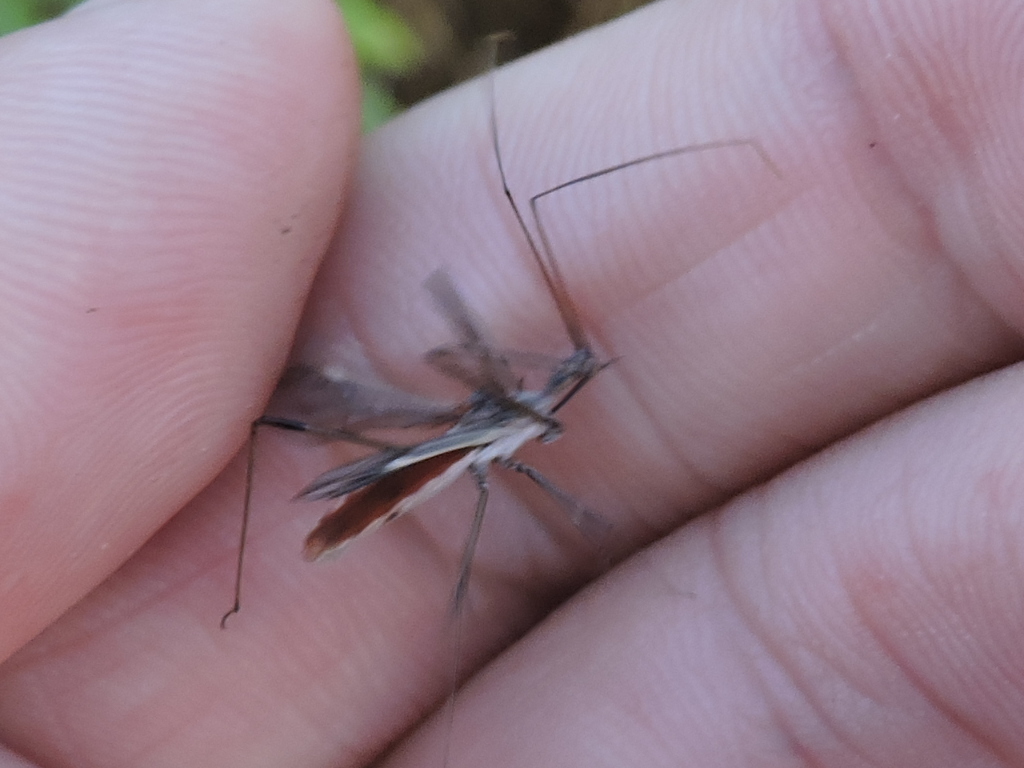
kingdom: Animalia
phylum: Arthropoda
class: Insecta
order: Hemiptera
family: Reduviidae
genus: Zelus
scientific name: Zelus tetracanthus
